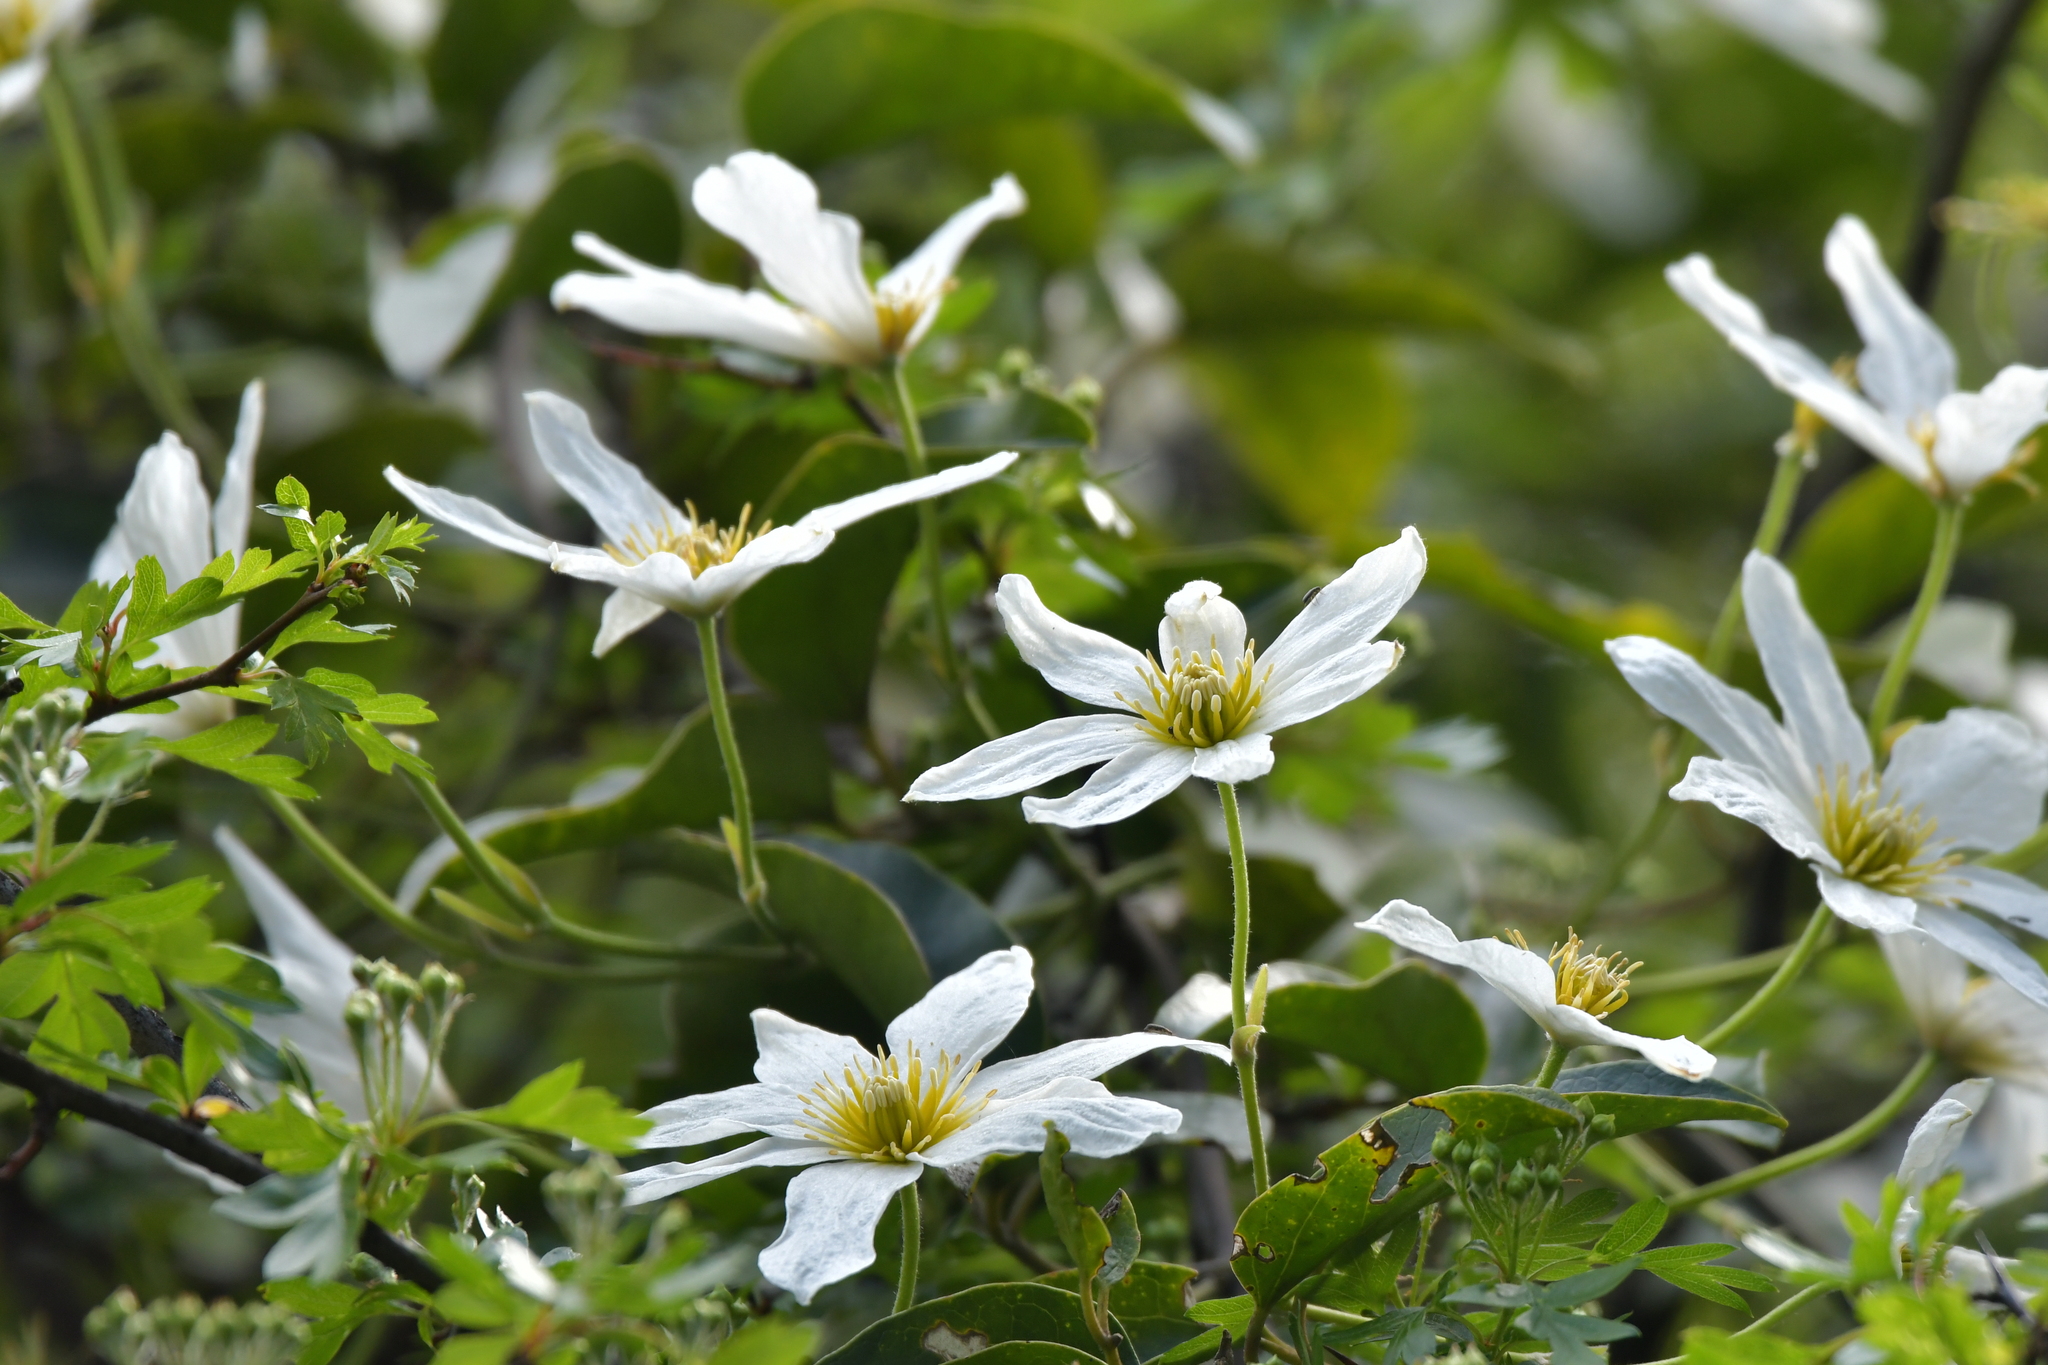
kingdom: Plantae
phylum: Tracheophyta
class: Magnoliopsida
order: Ranunculales
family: Ranunculaceae
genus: Clematis
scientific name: Clematis paniculata
